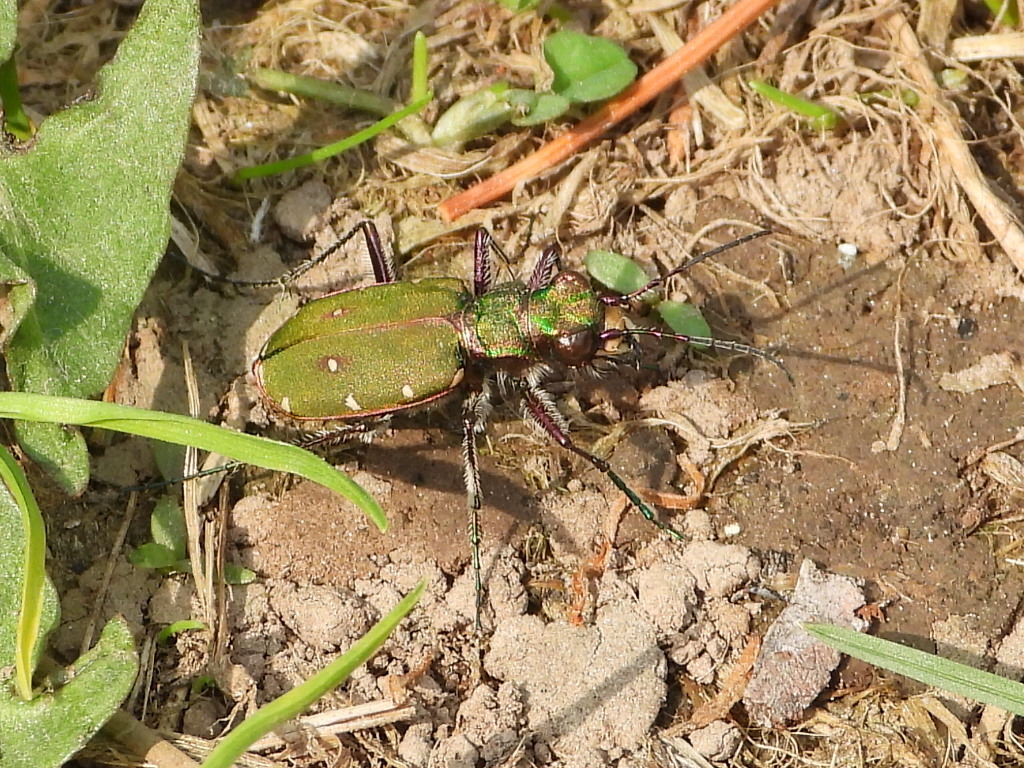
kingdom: Animalia
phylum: Arthropoda
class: Insecta
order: Coleoptera
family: Carabidae
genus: Cicindela
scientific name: Cicindela campestris
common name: Common tiger beetle
